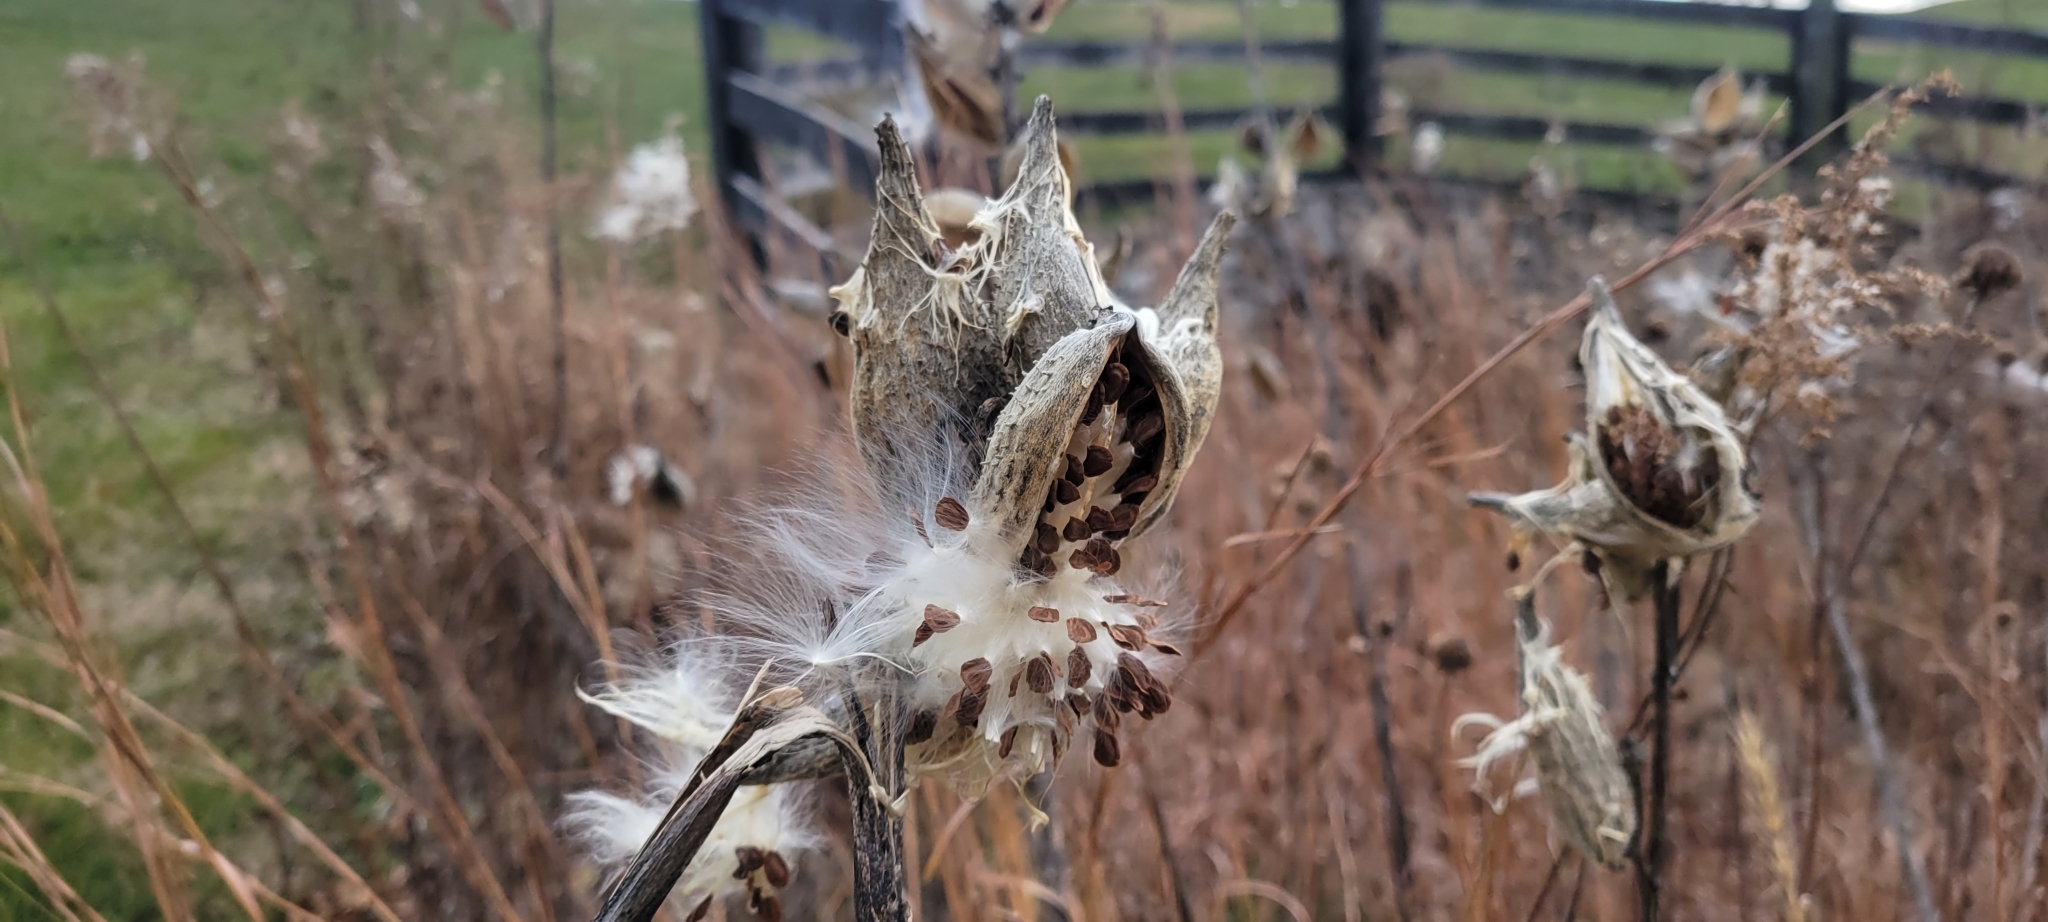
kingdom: Plantae
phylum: Tracheophyta
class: Magnoliopsida
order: Gentianales
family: Apocynaceae
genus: Asclepias
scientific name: Asclepias syriaca
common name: Common milkweed
